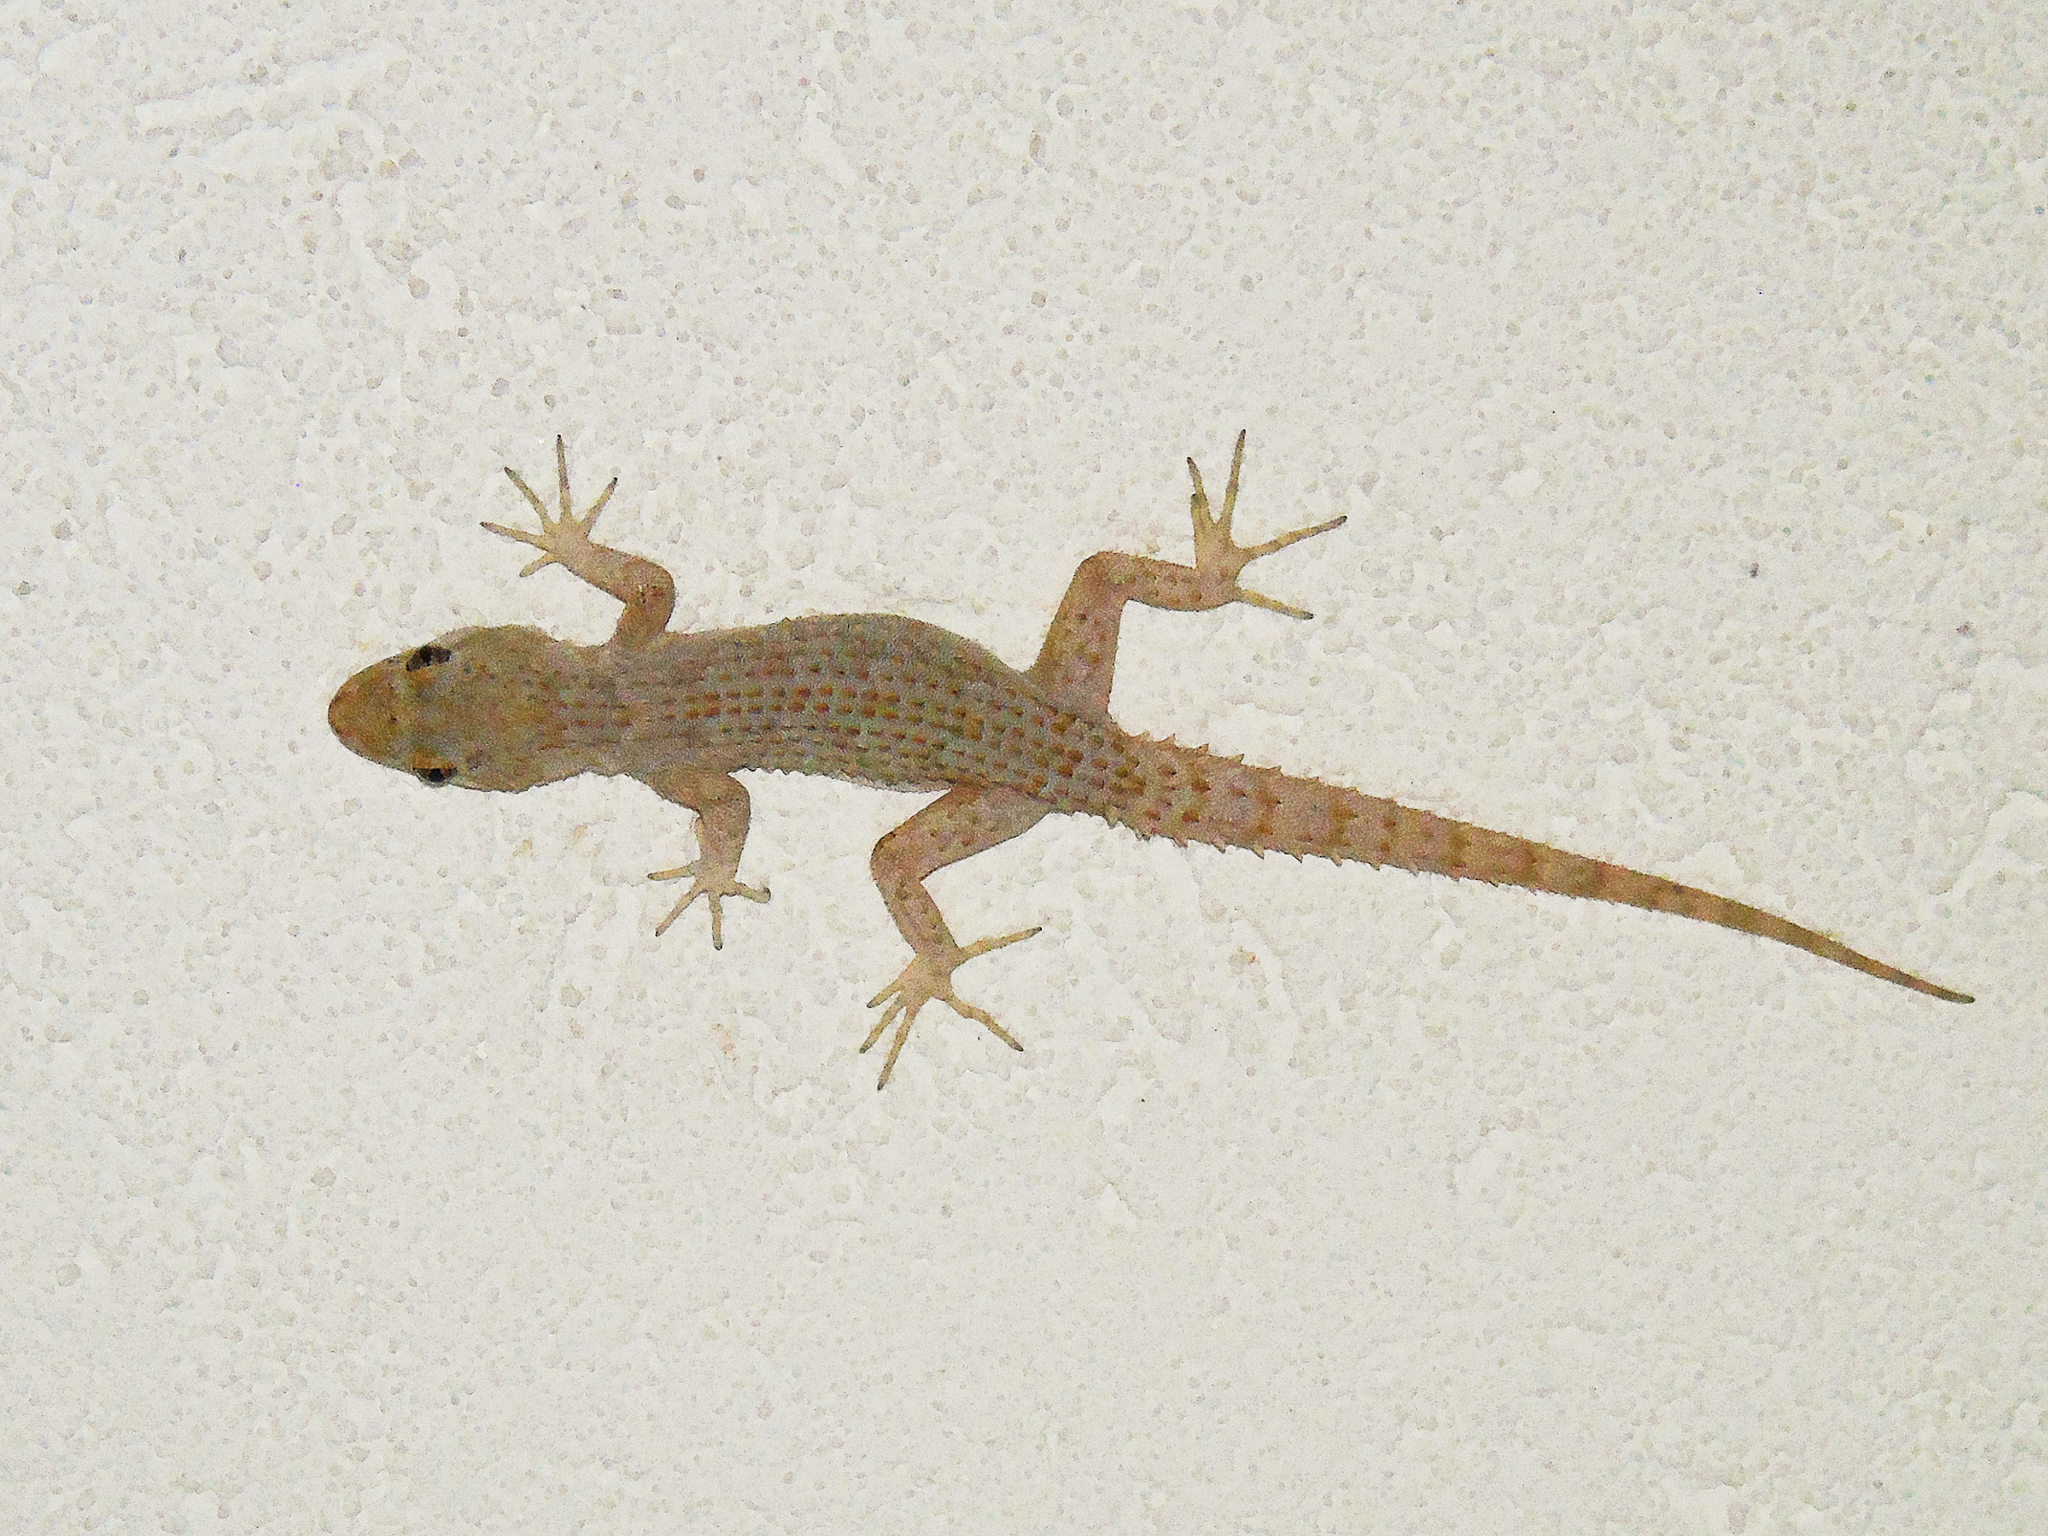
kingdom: Animalia
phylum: Chordata
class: Squamata
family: Gekkonidae
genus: Mediodactylus
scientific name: Mediodactylus kotschyi
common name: Kotschy's gecko
